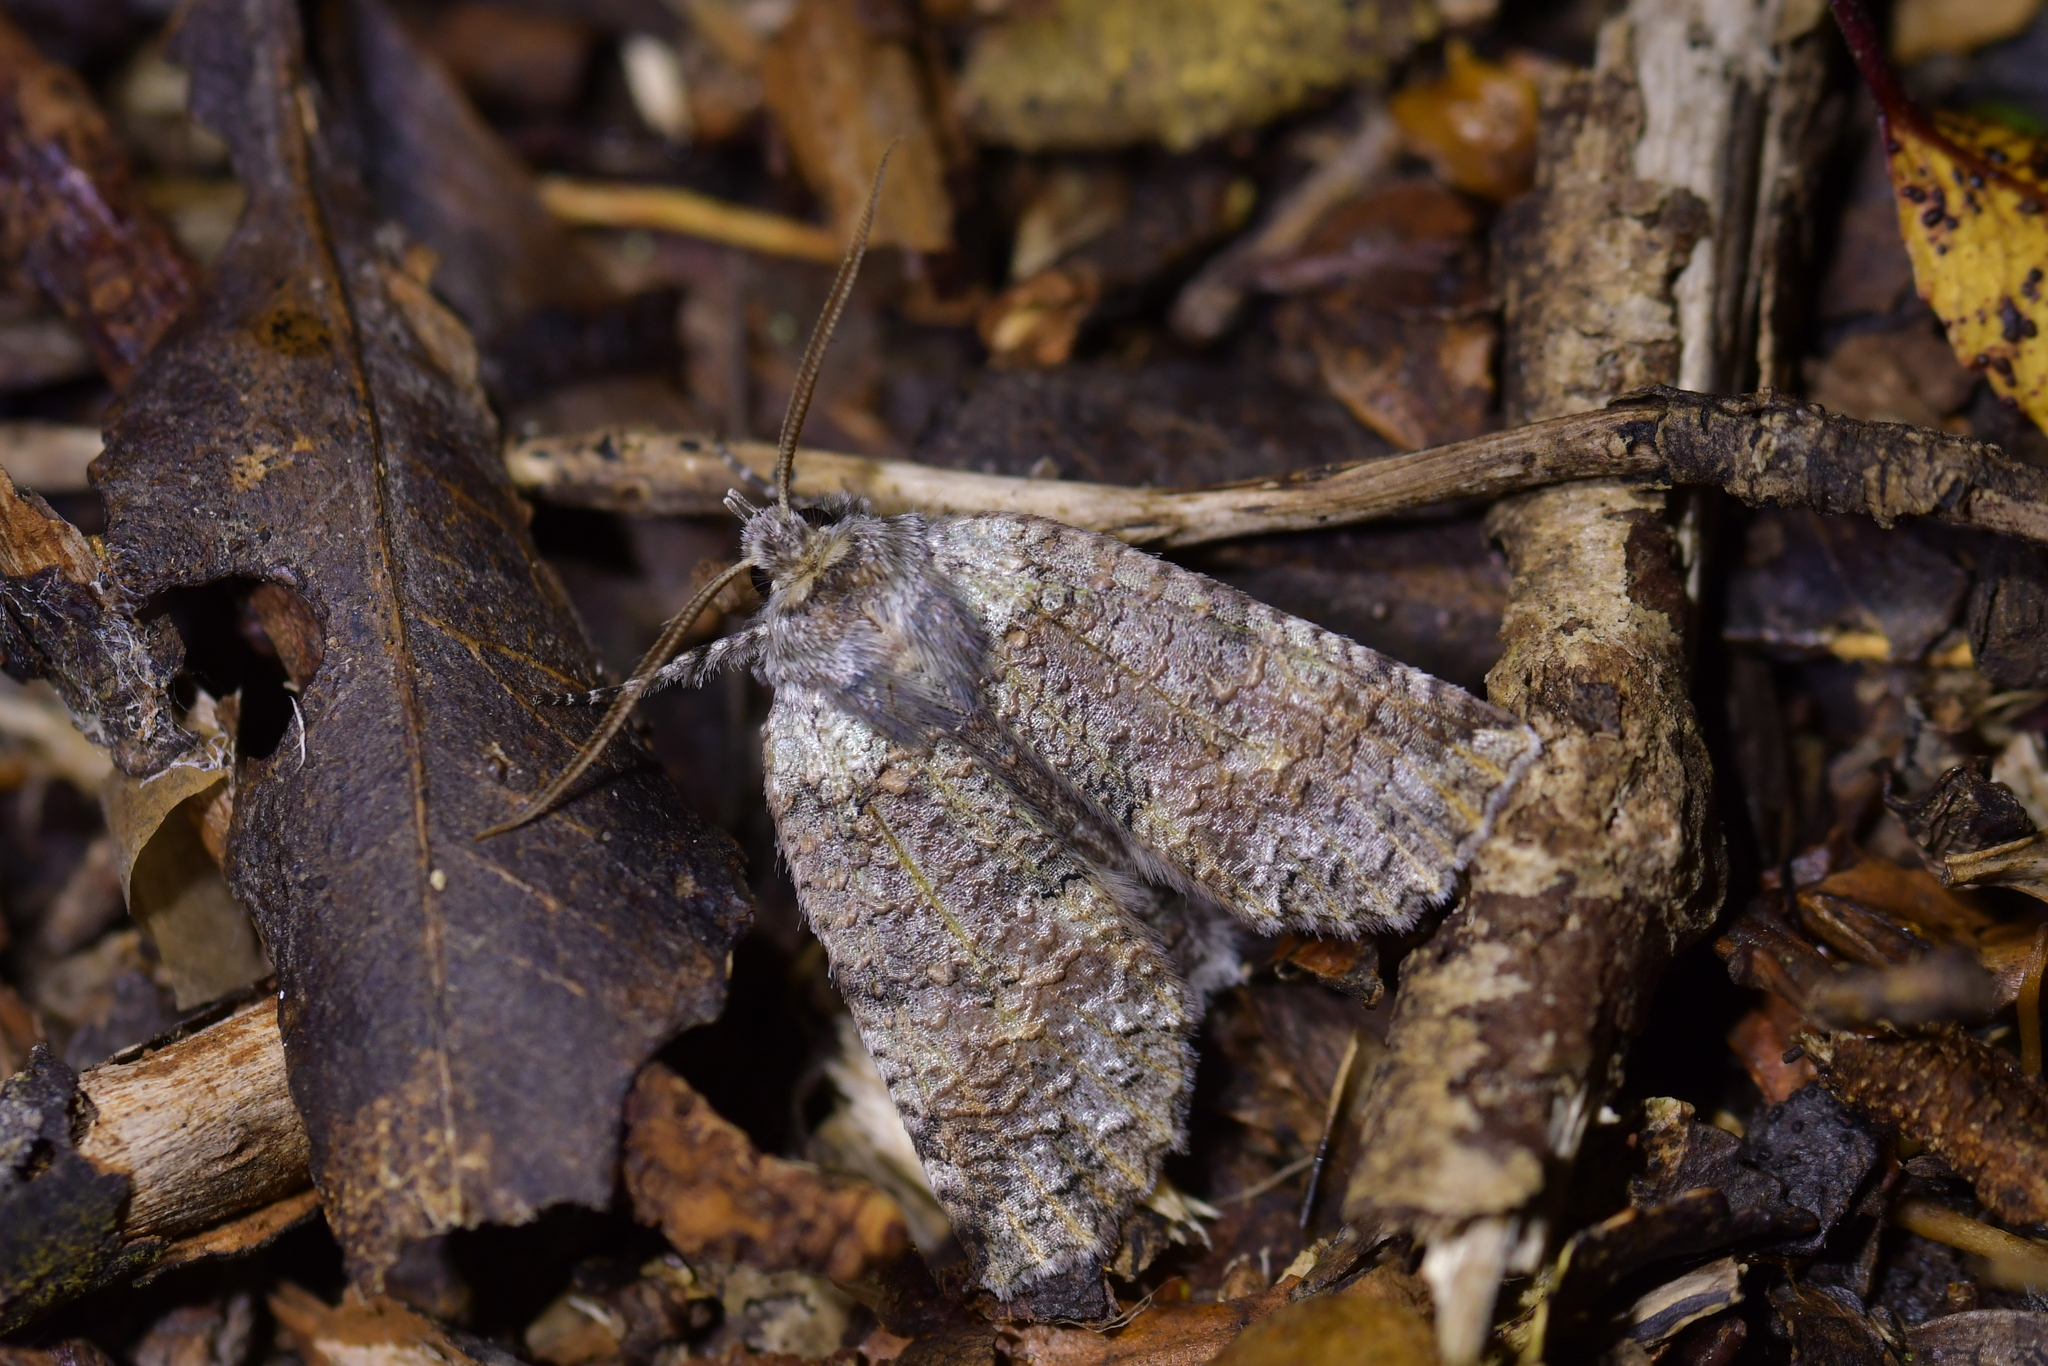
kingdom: Animalia
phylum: Arthropoda
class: Insecta
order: Lepidoptera
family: Geometridae
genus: Declana
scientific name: Declana floccosa
